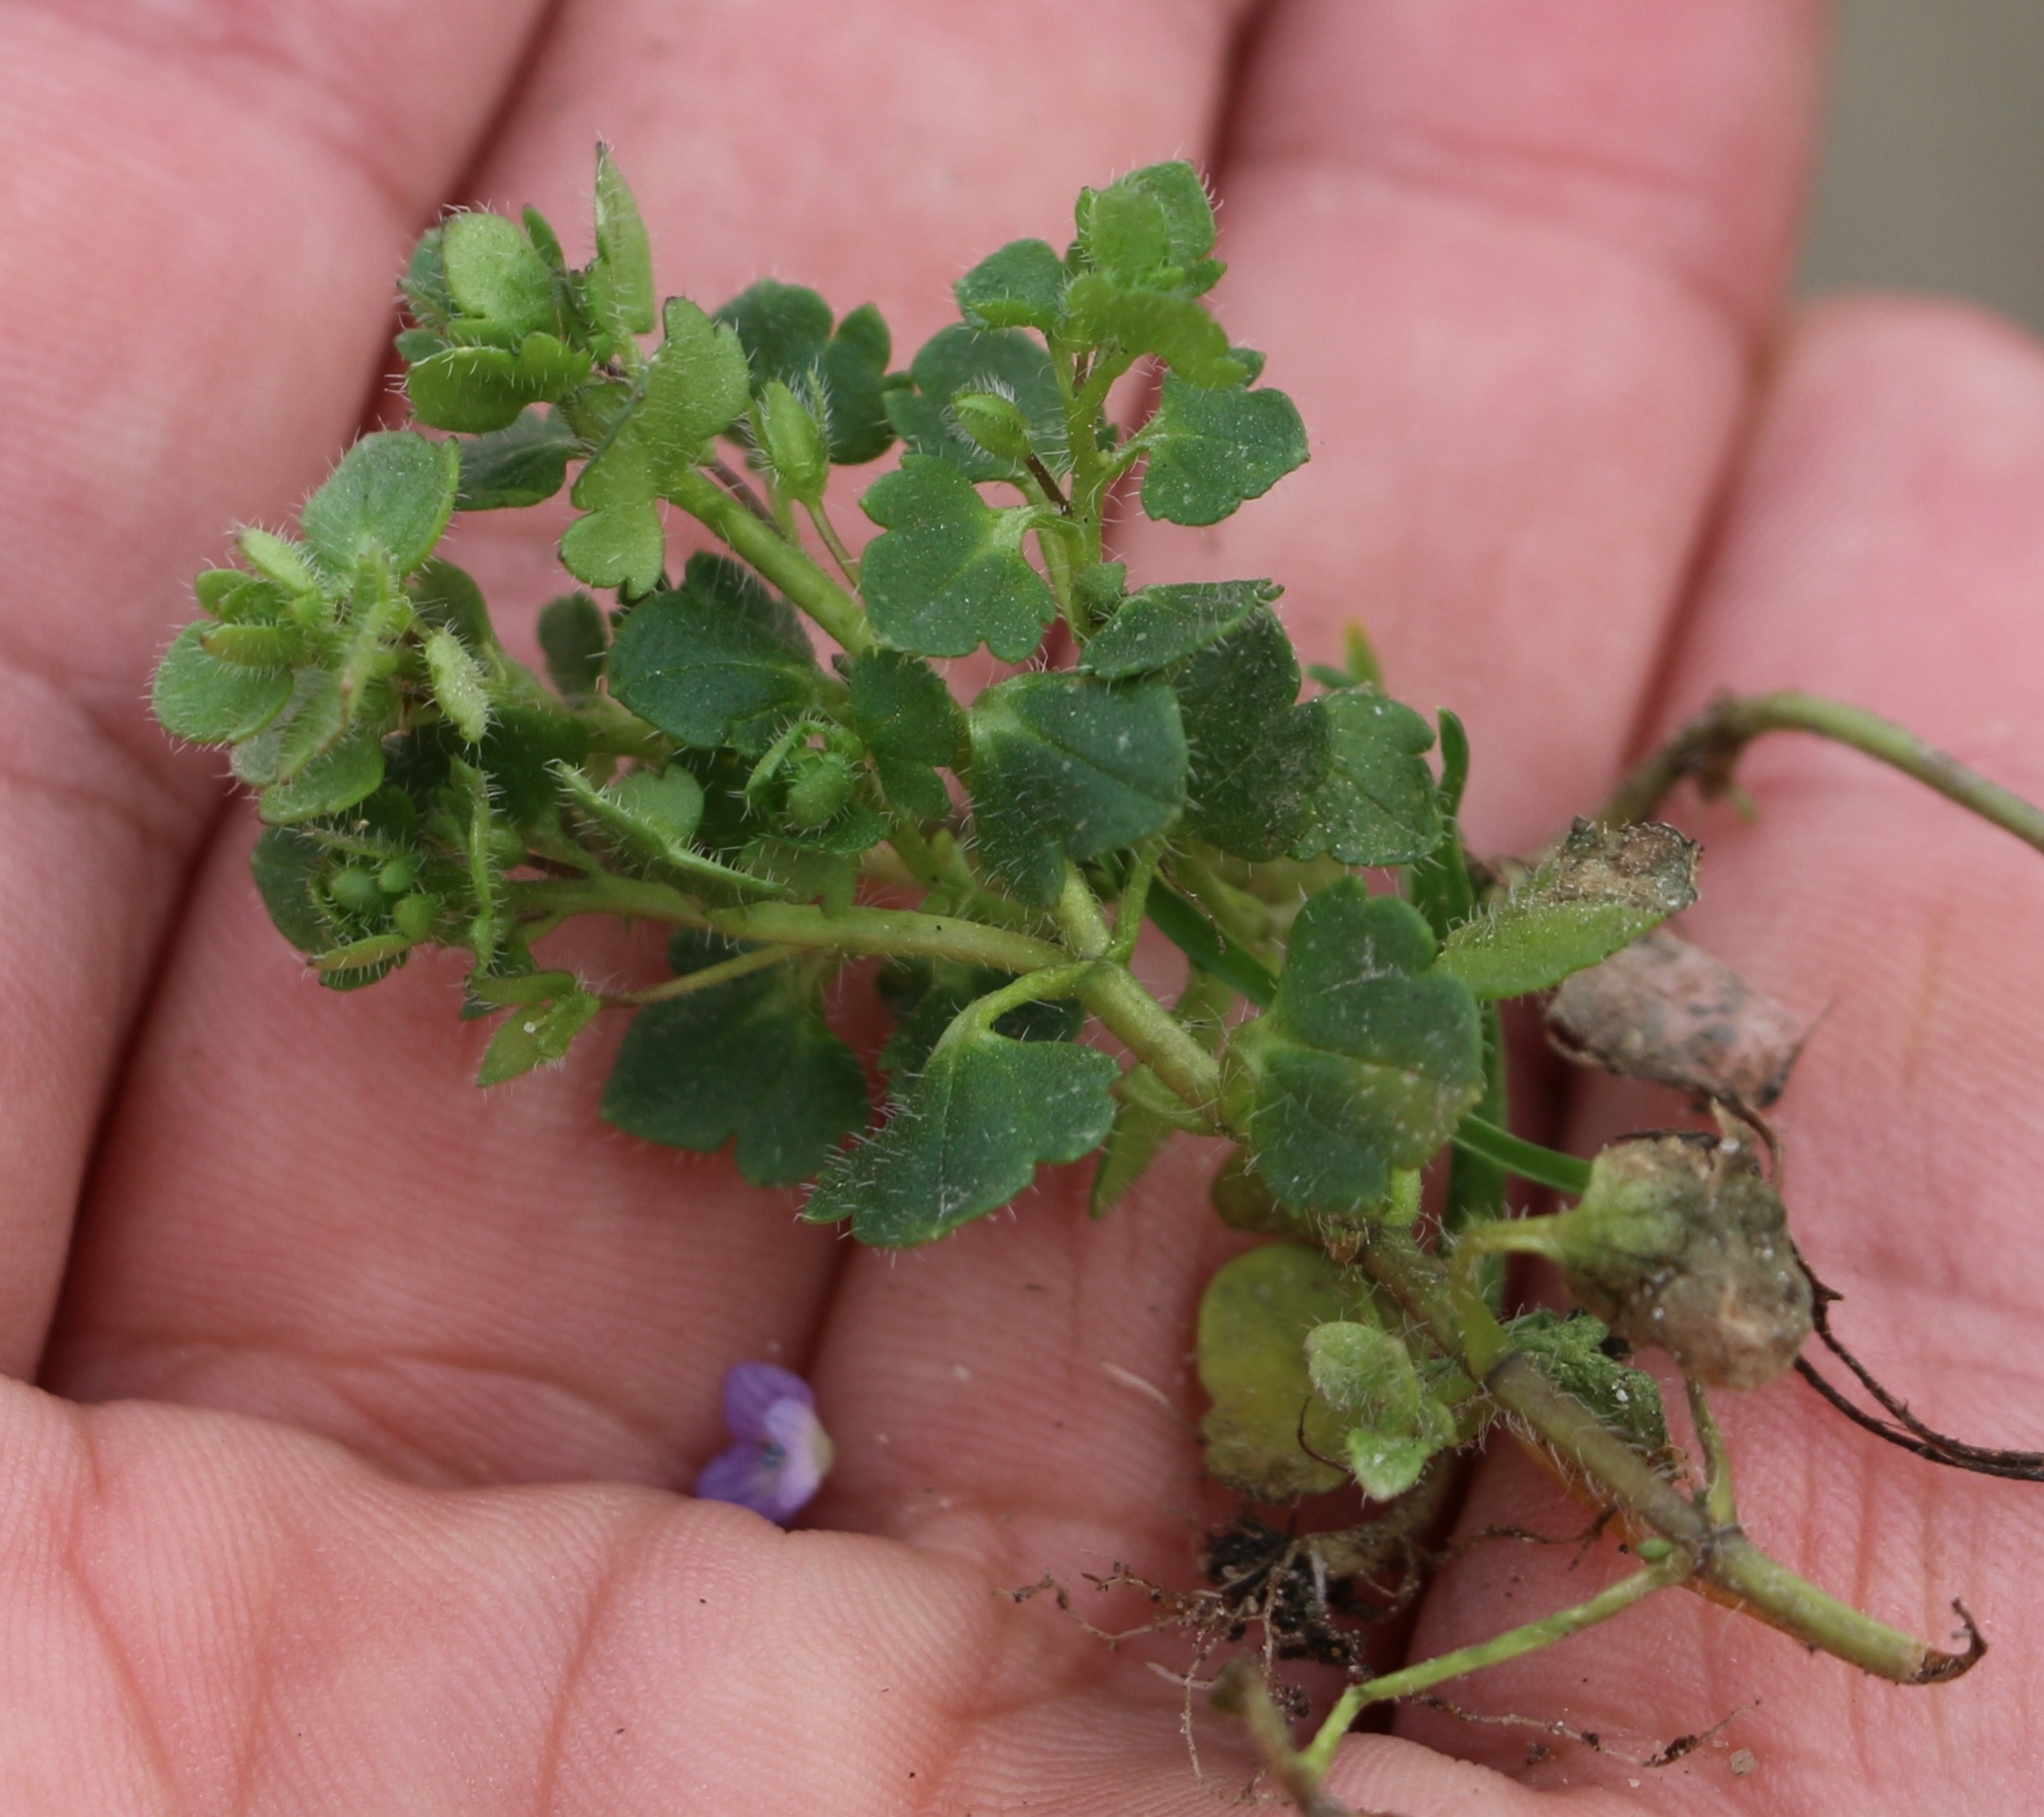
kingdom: Plantae
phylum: Tracheophyta
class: Magnoliopsida
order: Lamiales
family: Plantaginaceae
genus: Veronica
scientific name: Veronica hederifolia
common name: Ivy-leaved speedwell
